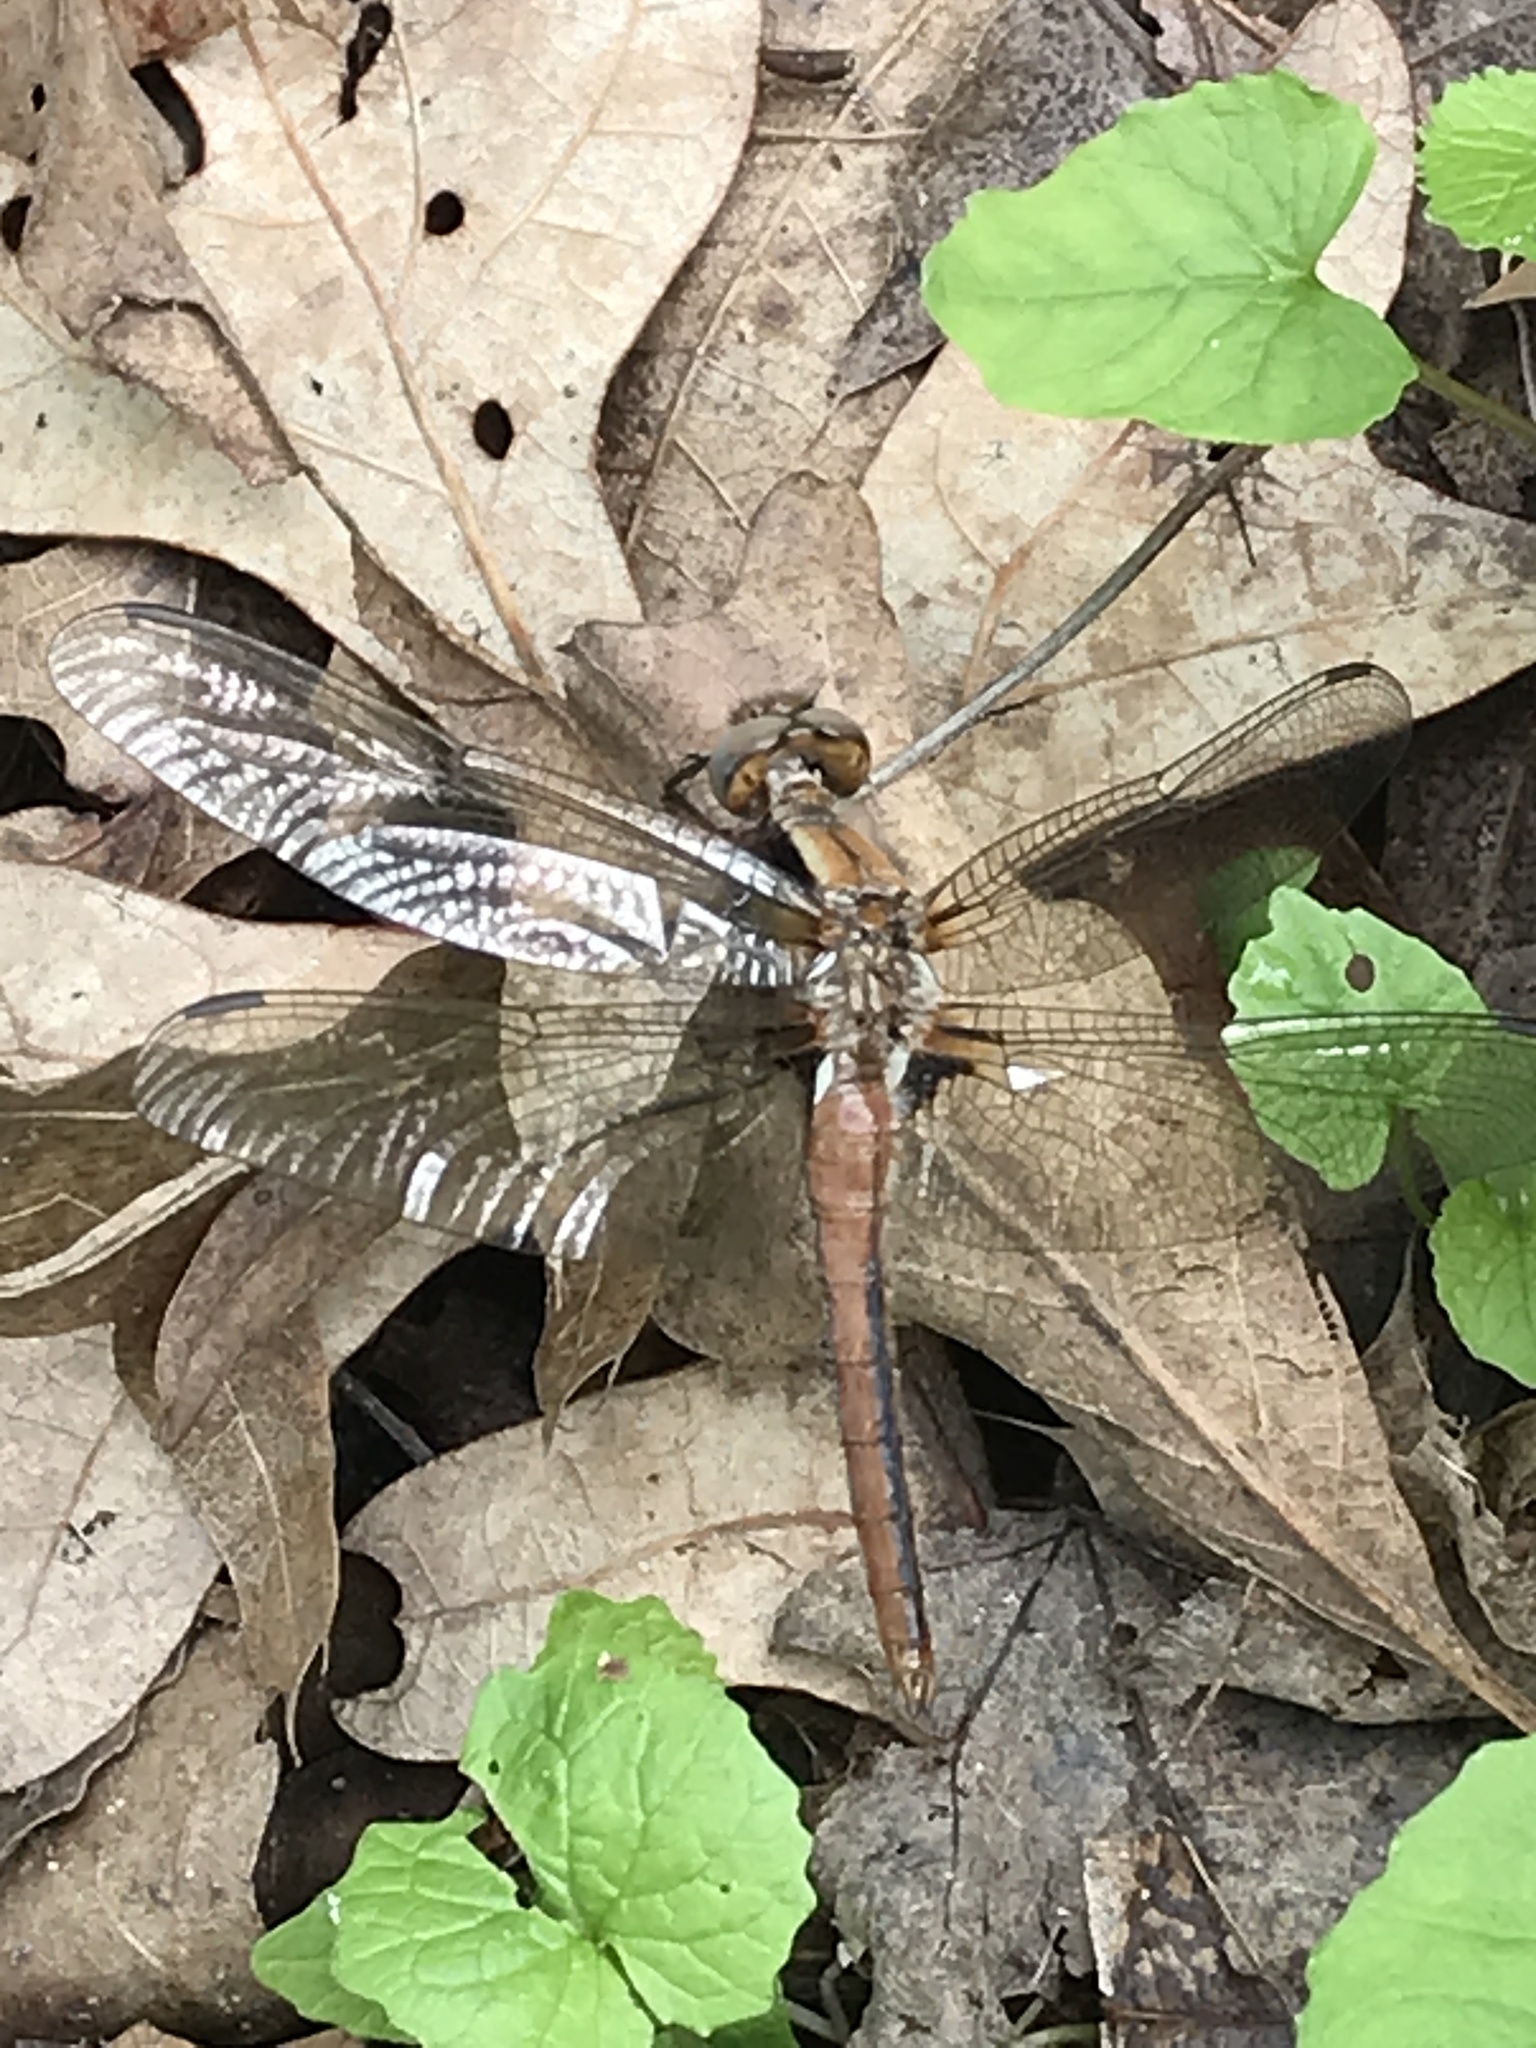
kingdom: Animalia
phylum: Arthropoda
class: Insecta
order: Odonata
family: Libellulidae
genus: Ladona
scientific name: Ladona julia
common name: Chalk-fronted corporal
